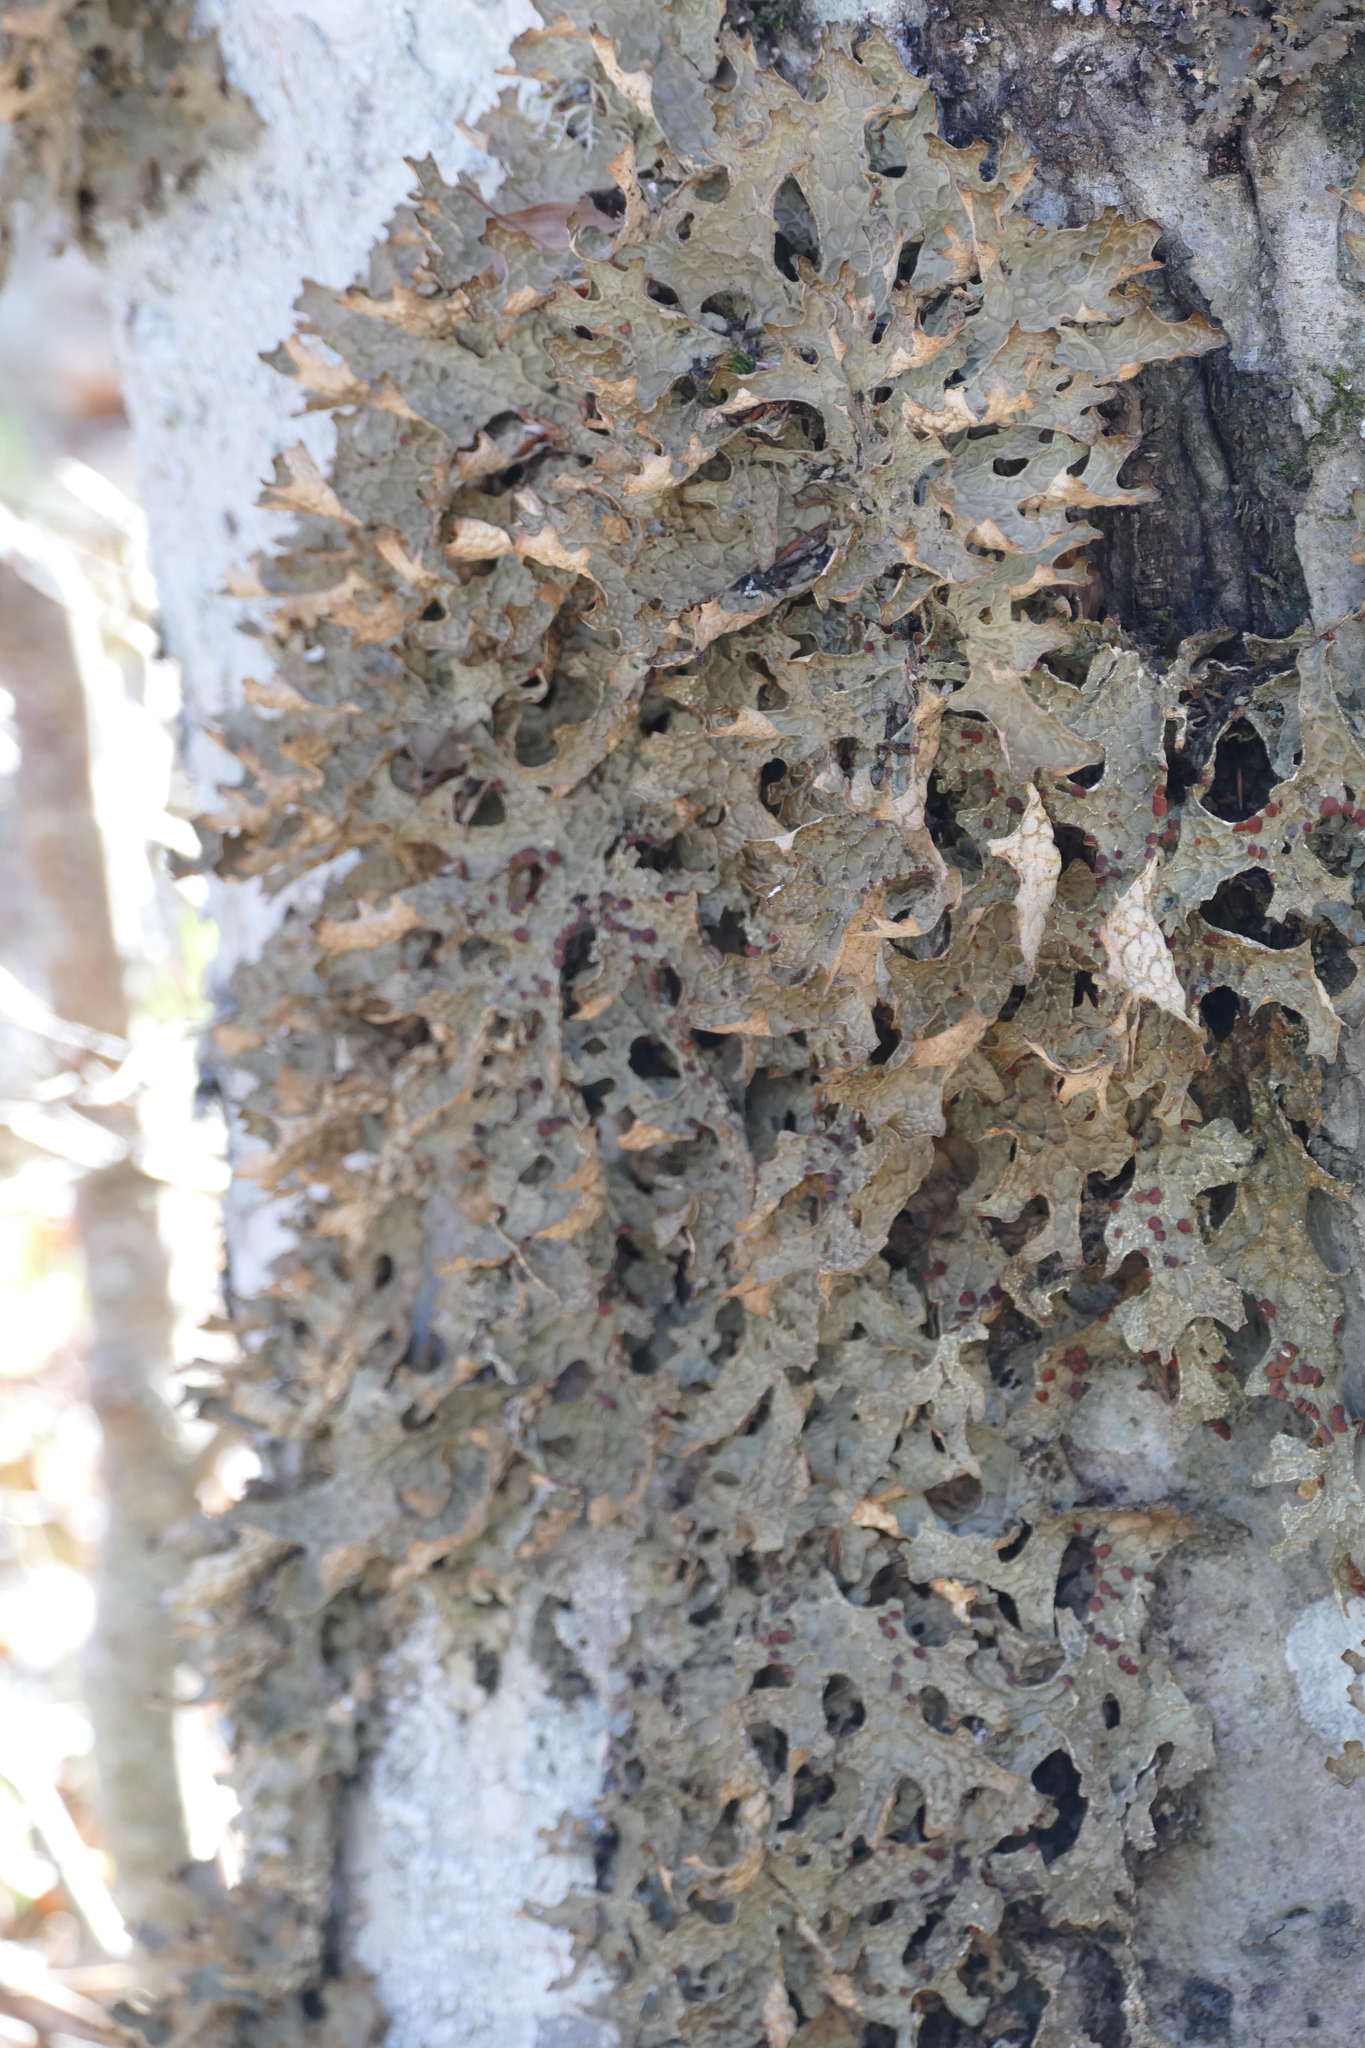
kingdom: Fungi
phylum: Ascomycota
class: Lecanoromycetes
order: Peltigerales
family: Lobariaceae
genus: Lobaria
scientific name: Lobaria pulmonaria
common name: Lungwort
